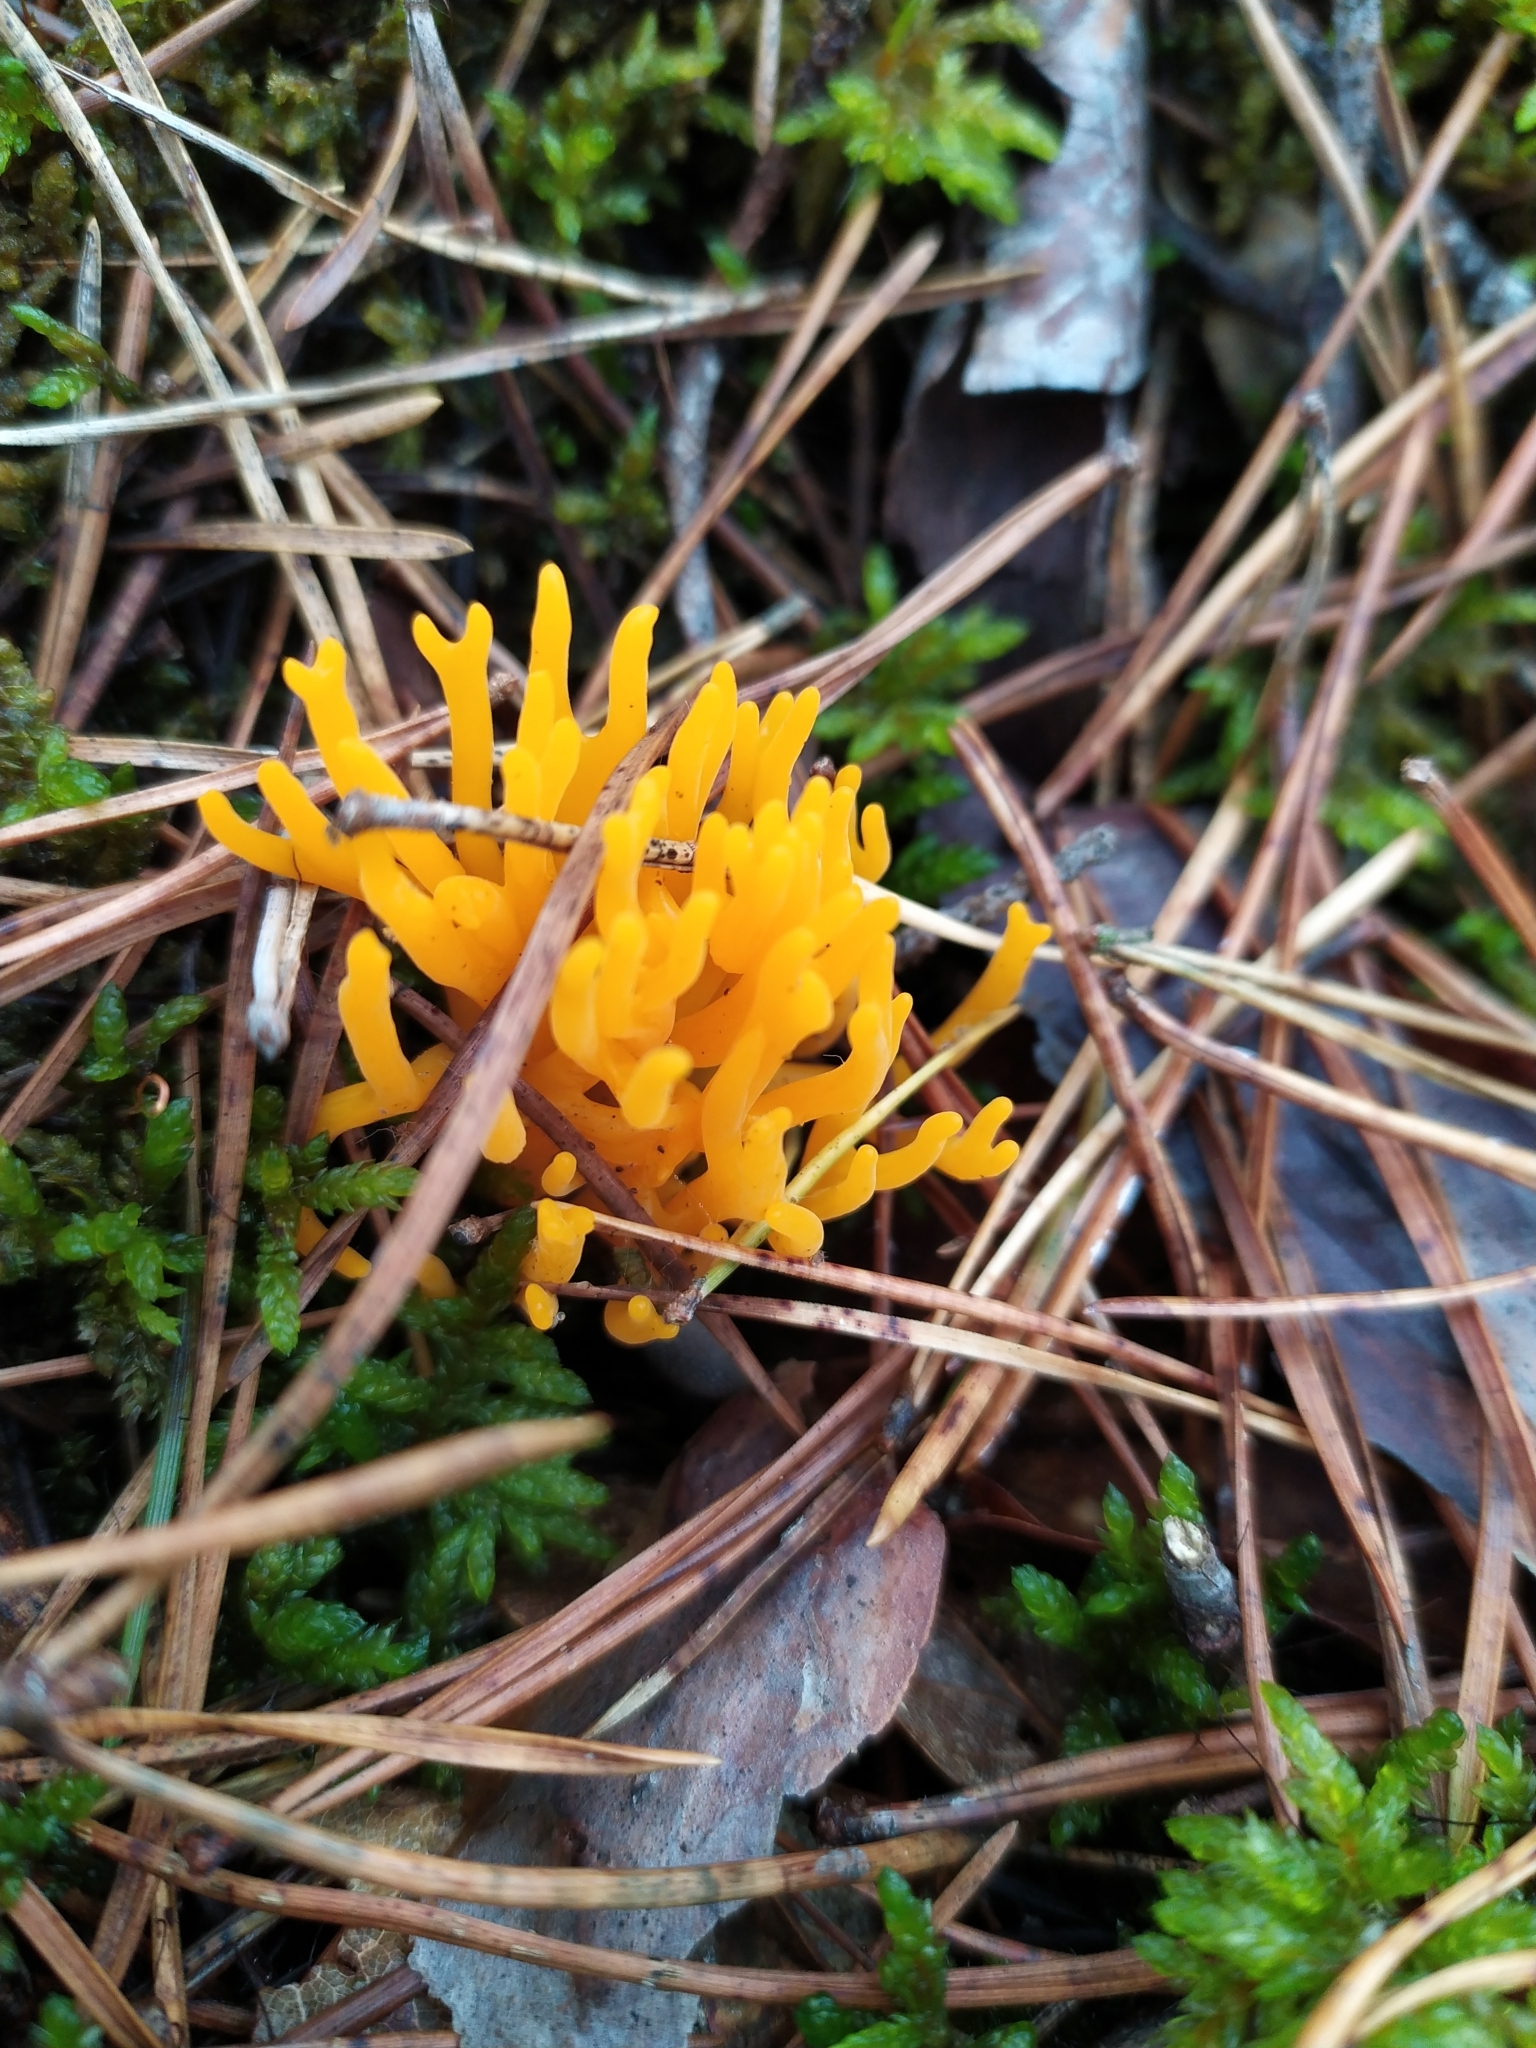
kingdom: Fungi
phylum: Basidiomycota
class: Dacrymycetes
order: Dacrymycetales
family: Dacrymycetaceae
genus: Calocera
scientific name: Calocera viscosa
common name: Yellow stagshorn
